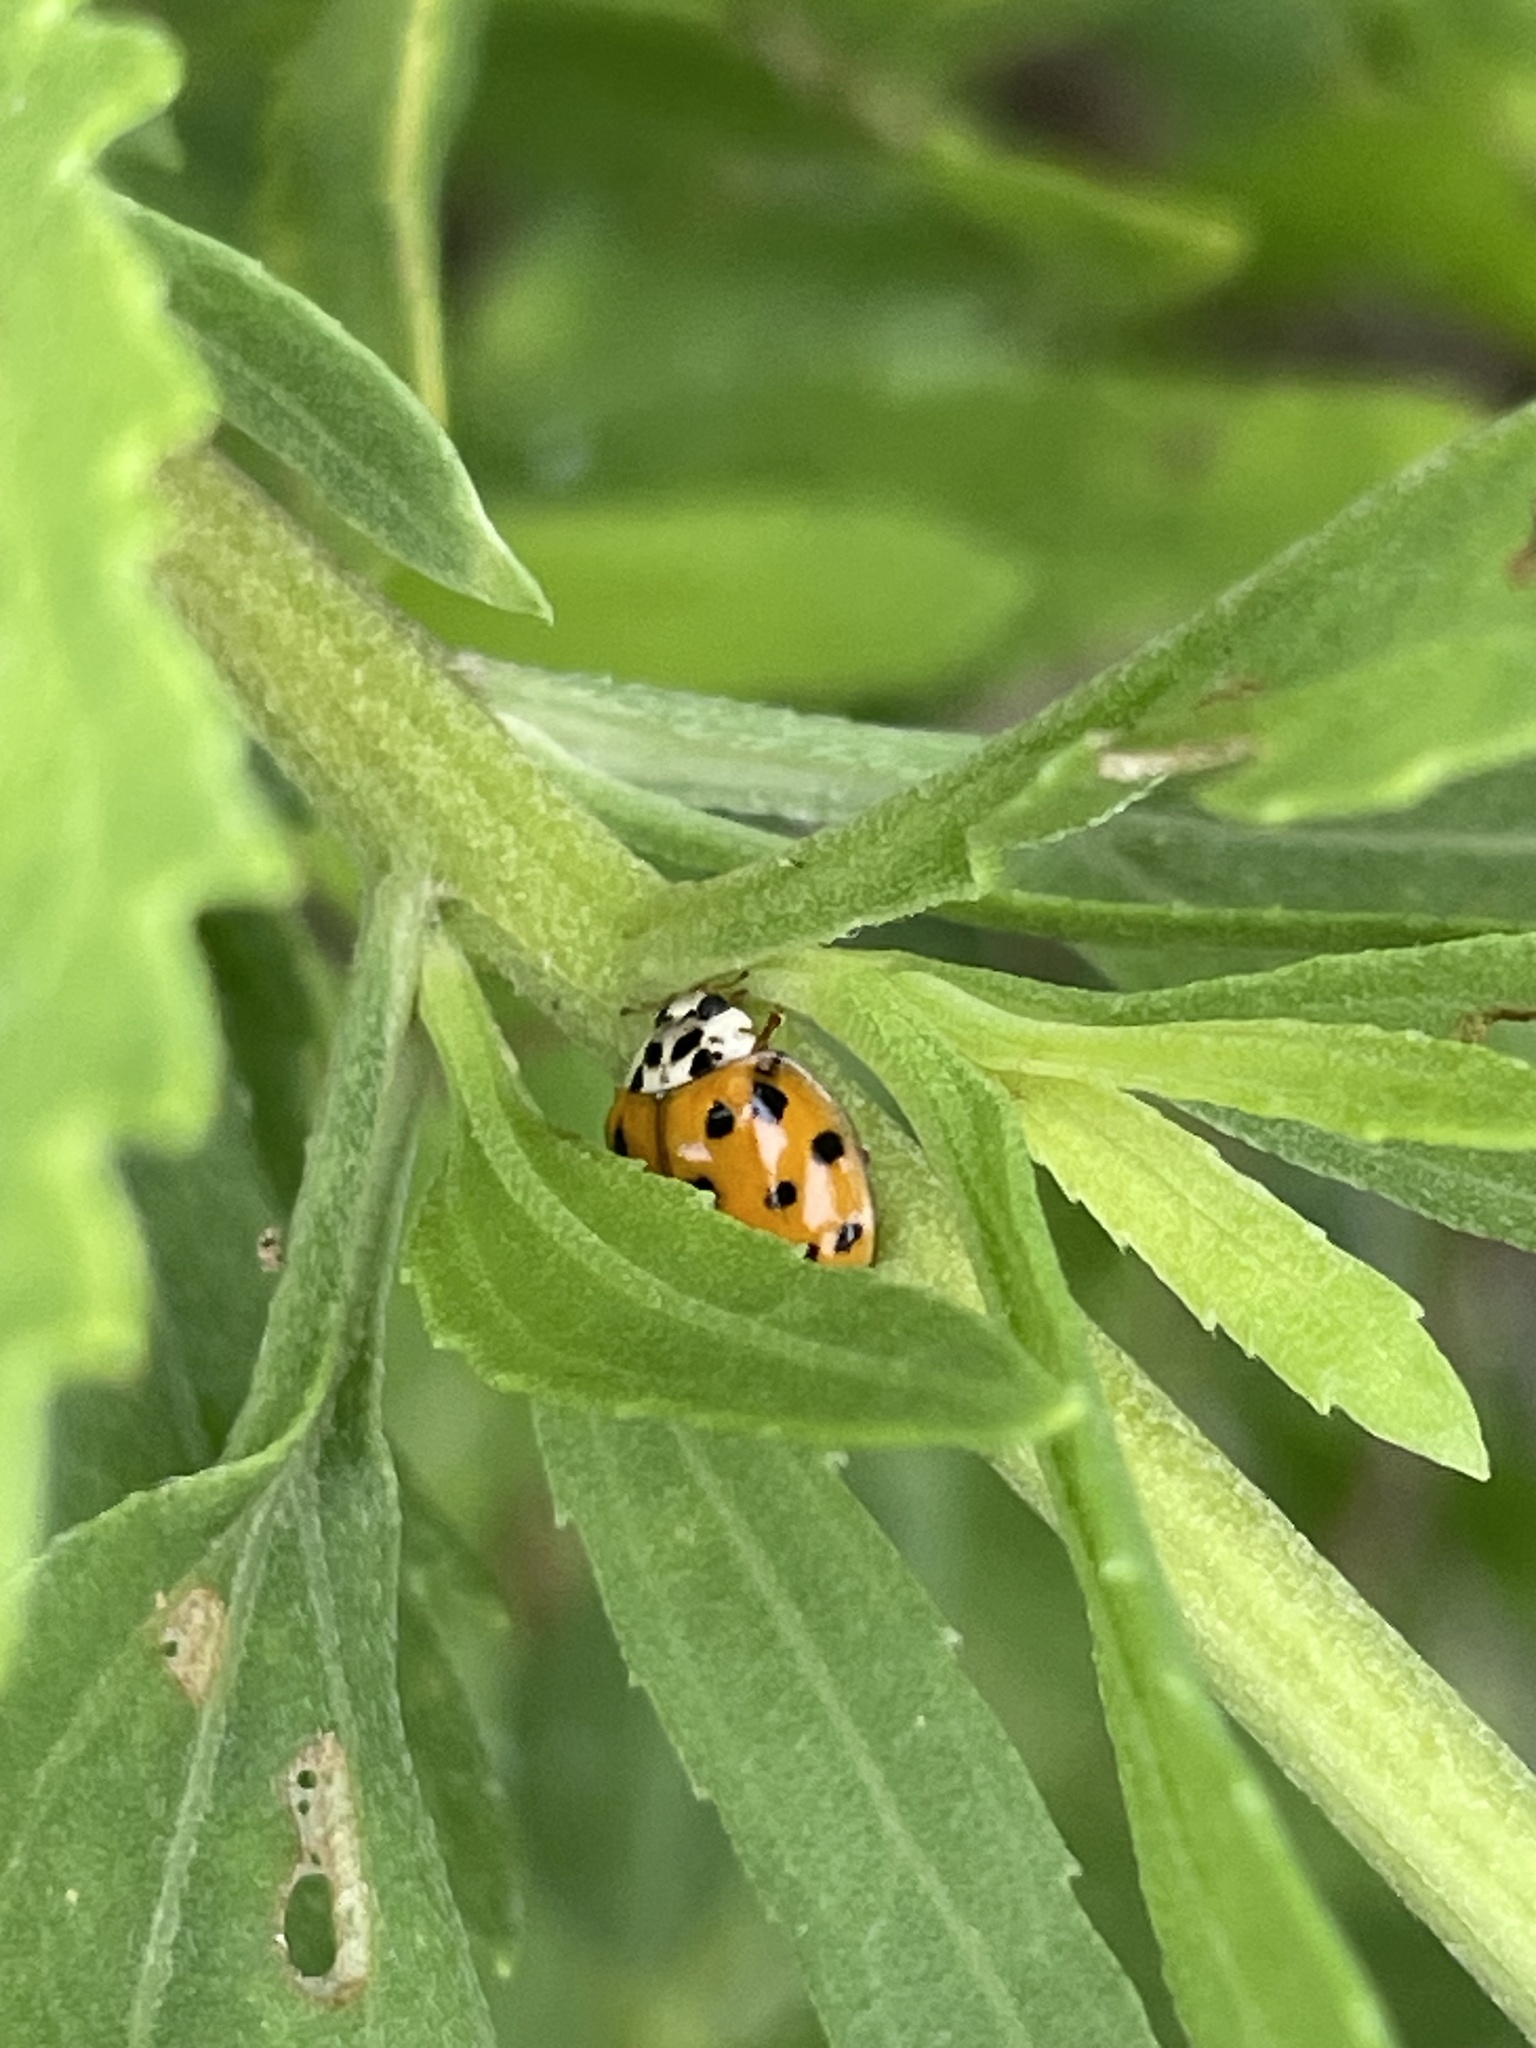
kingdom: Animalia
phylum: Arthropoda
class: Insecta
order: Coleoptera
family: Coccinellidae
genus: Harmonia
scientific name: Harmonia axyridis
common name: Harlequin ladybird
